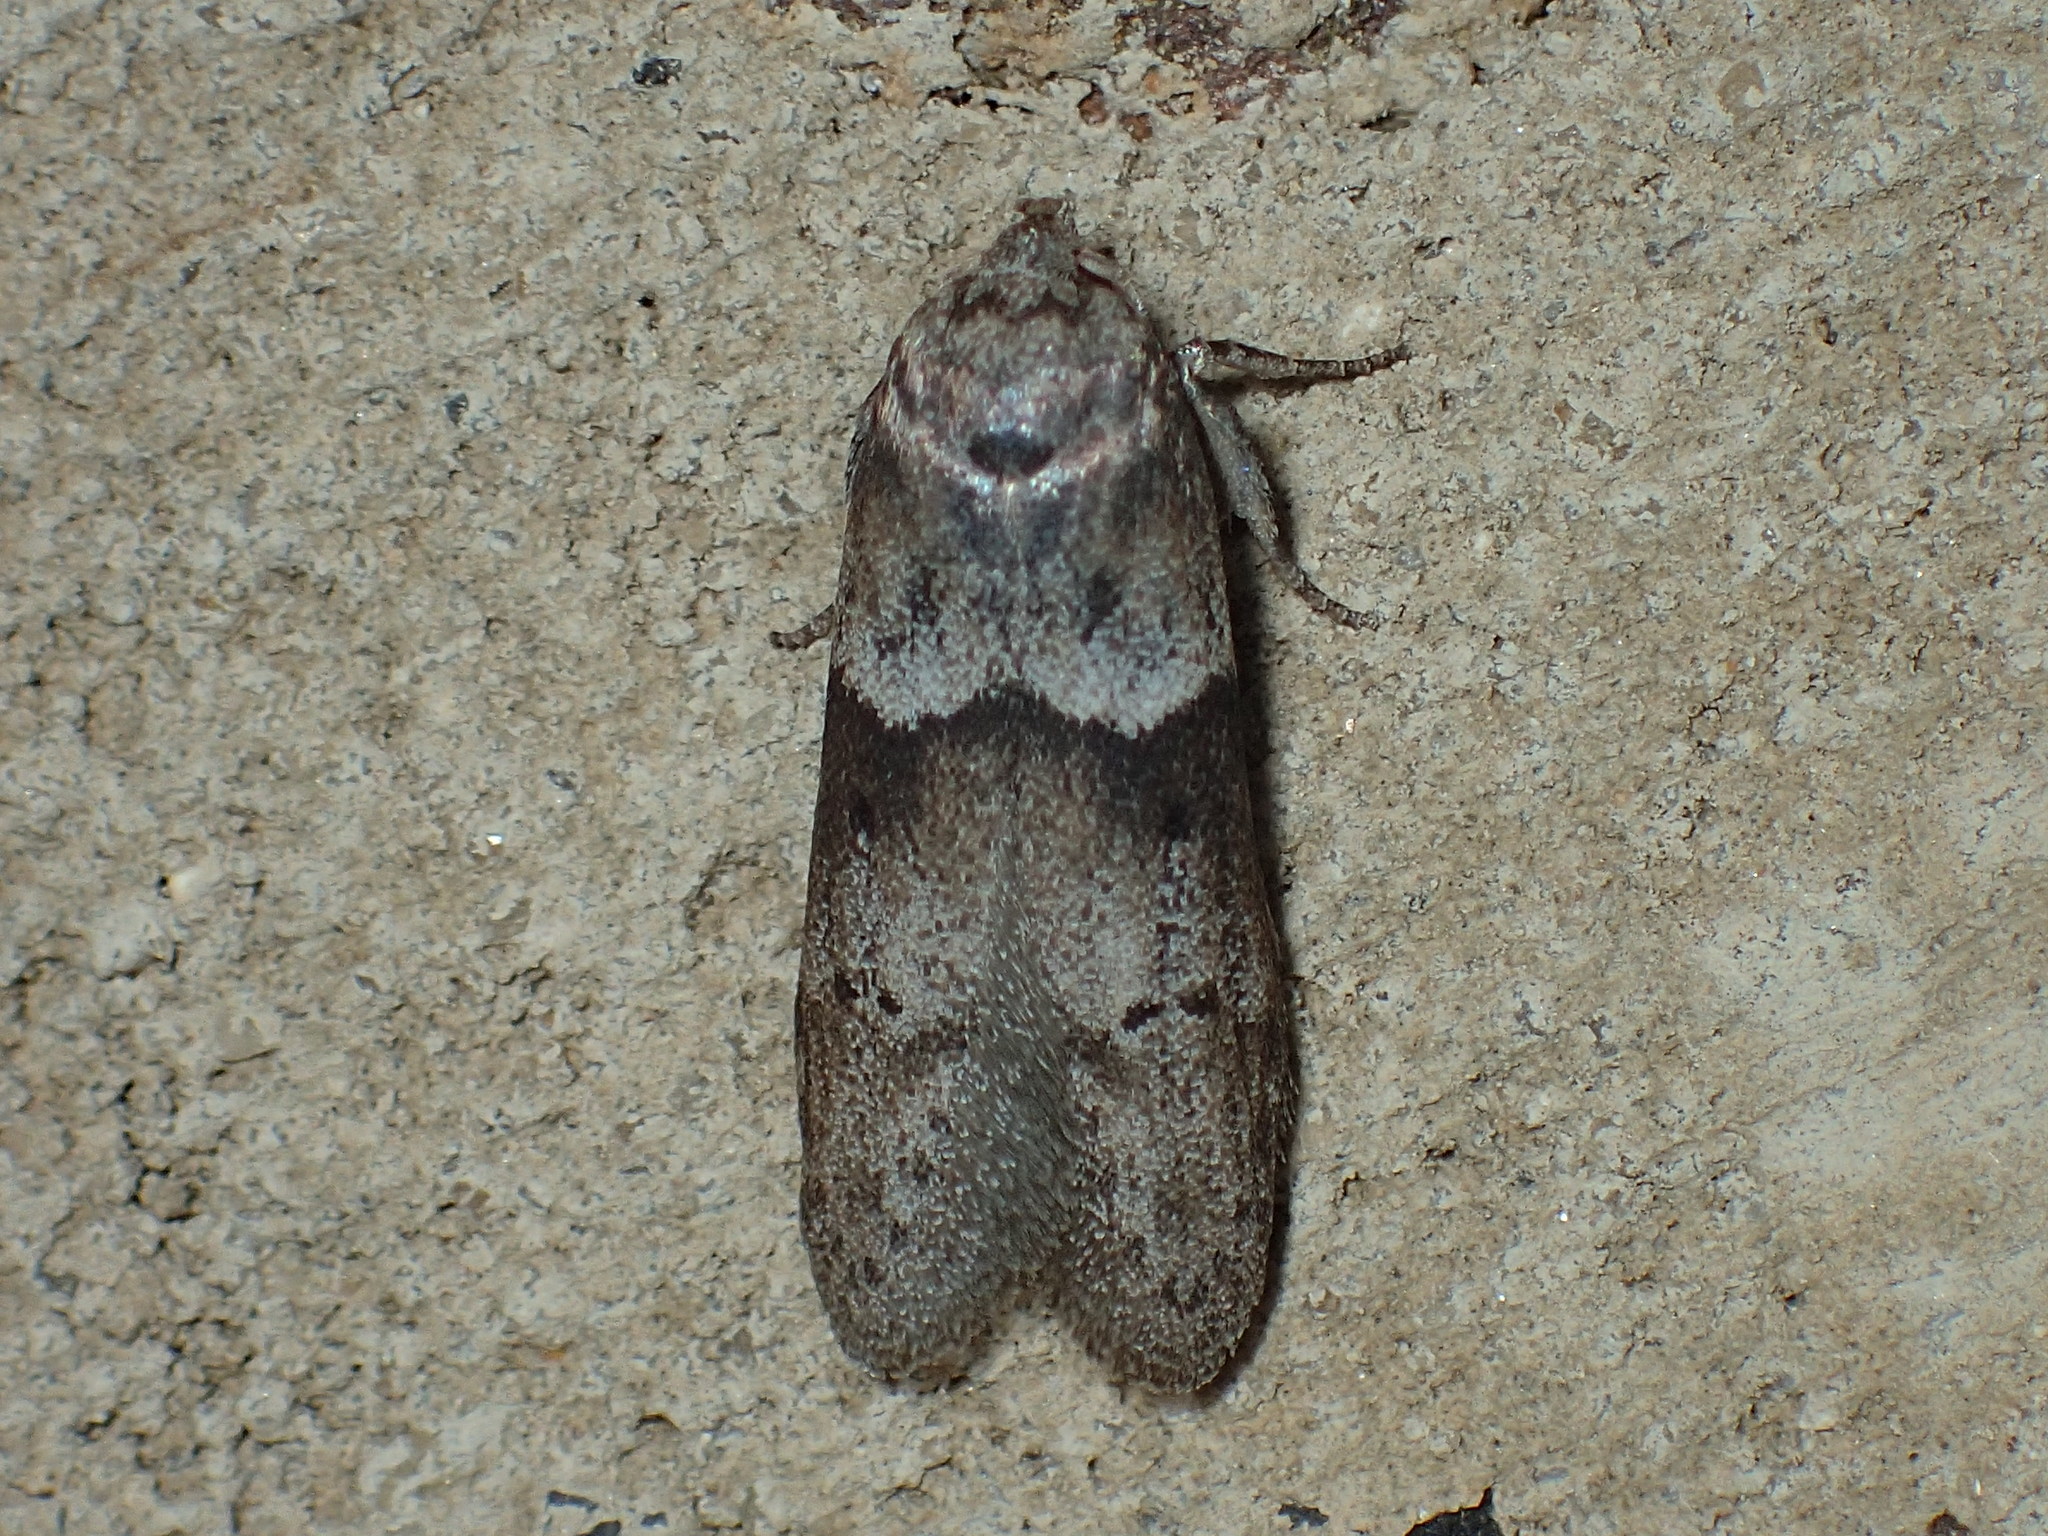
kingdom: Animalia
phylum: Arthropoda
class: Insecta
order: Lepidoptera
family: Blastobasidae
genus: Blastobasis
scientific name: Blastobasis glandulella
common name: Acorn moth
